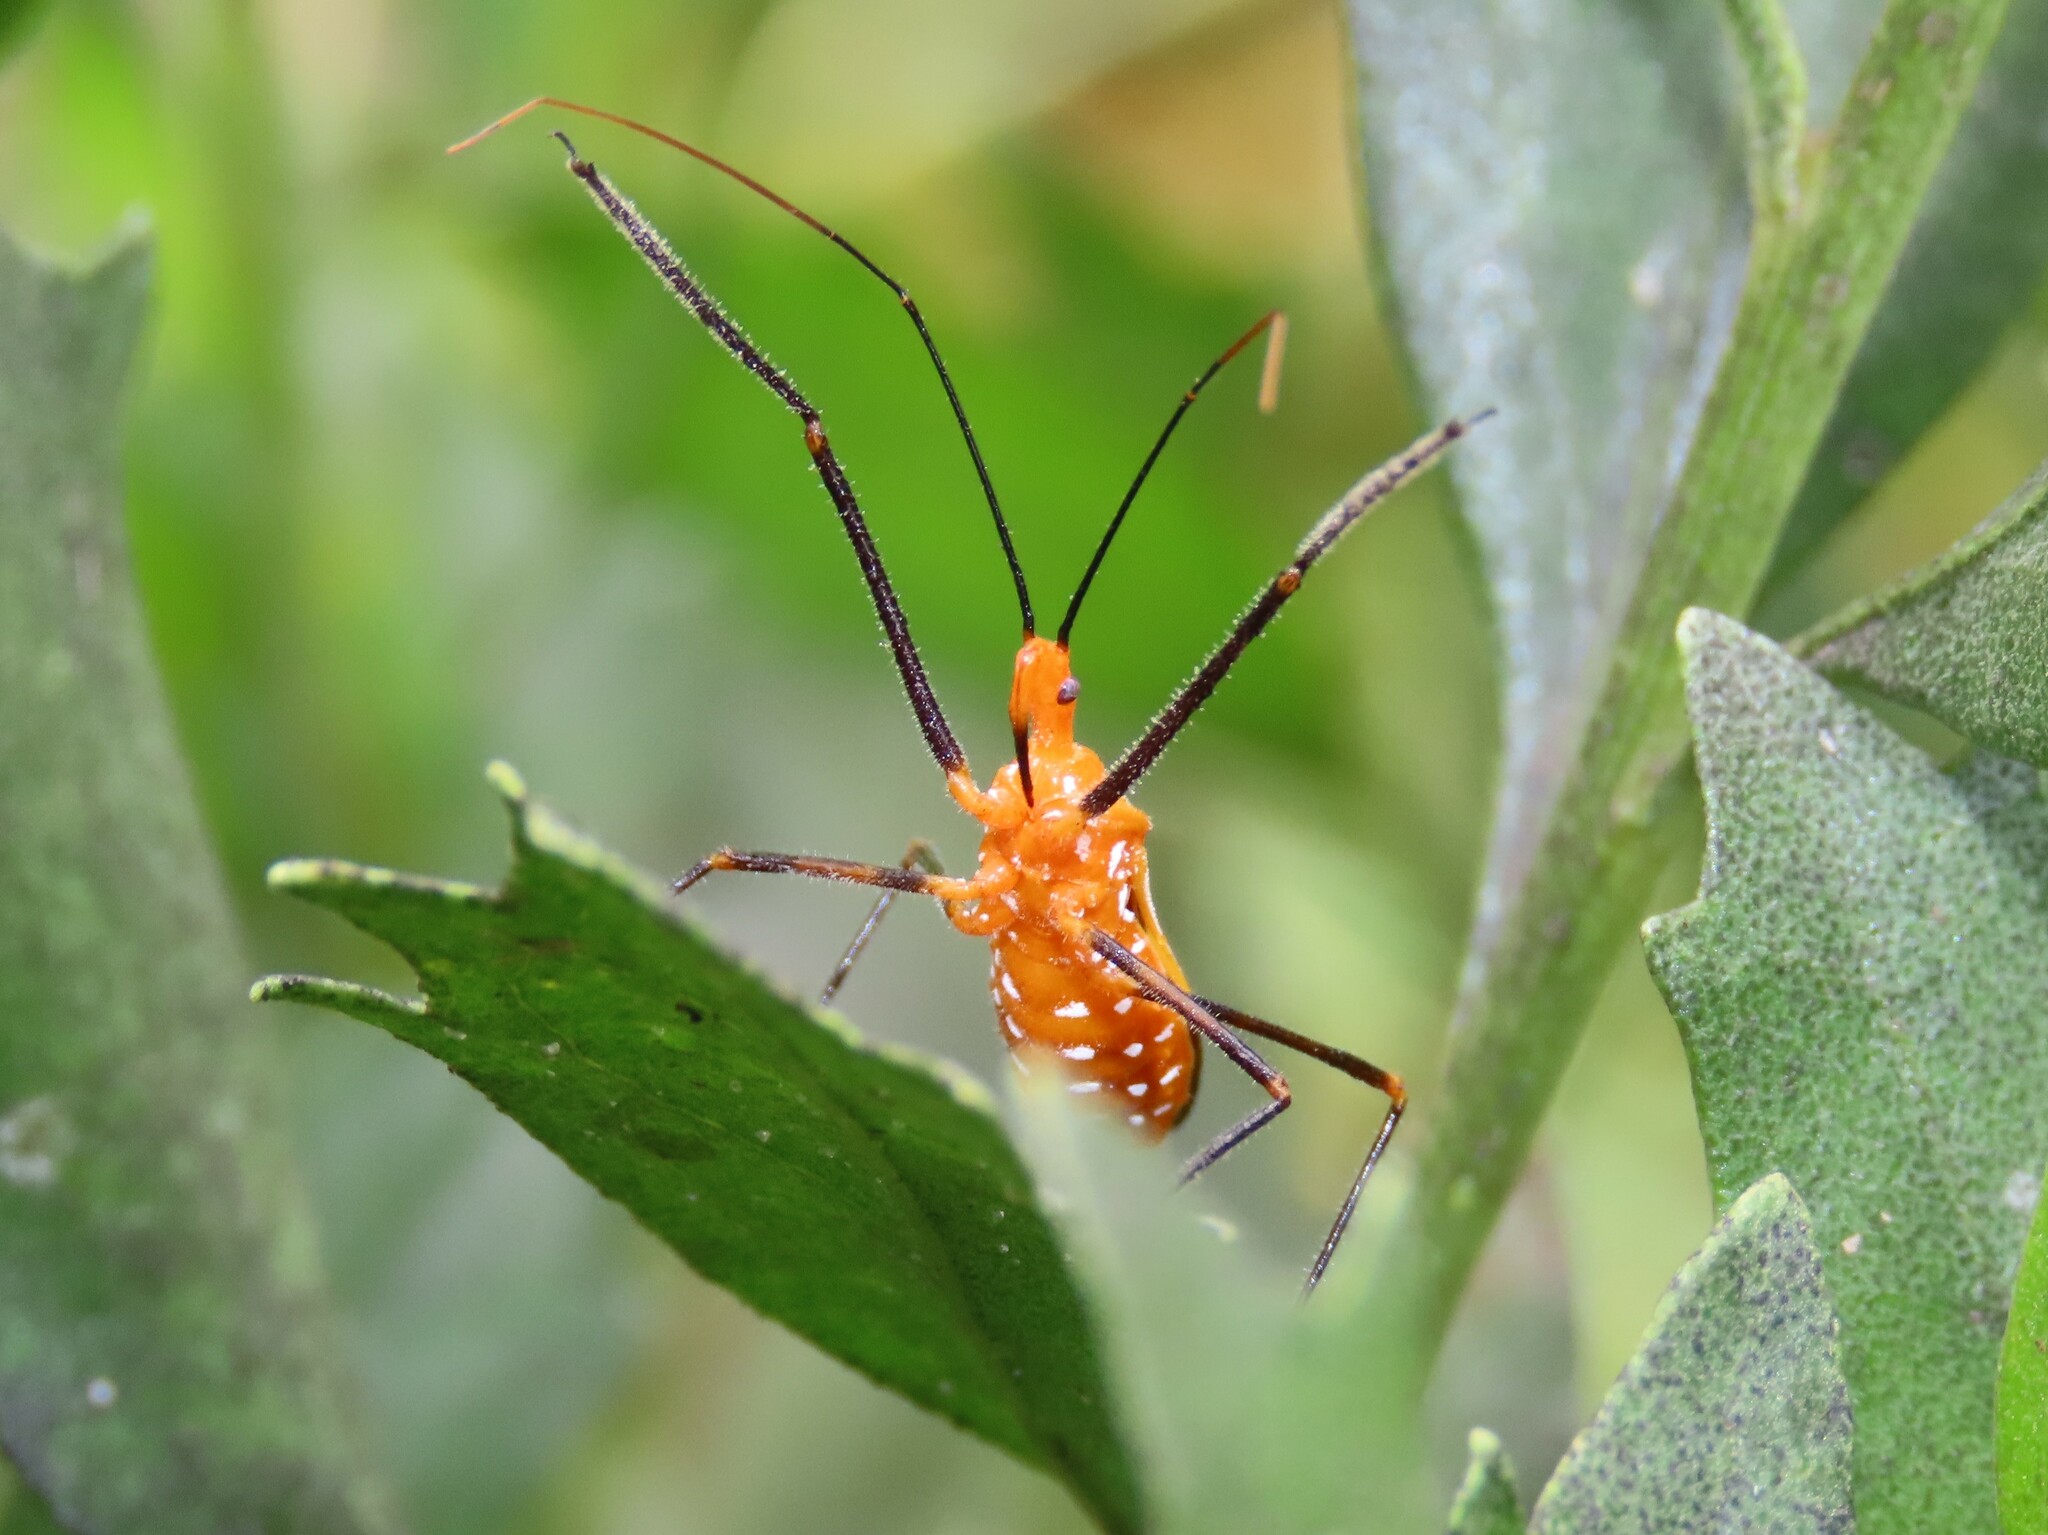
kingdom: Animalia
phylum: Arthropoda
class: Insecta
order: Hemiptera
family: Reduviidae
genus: Zelus
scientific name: Zelus longipes
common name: Milkweed assassin bug
